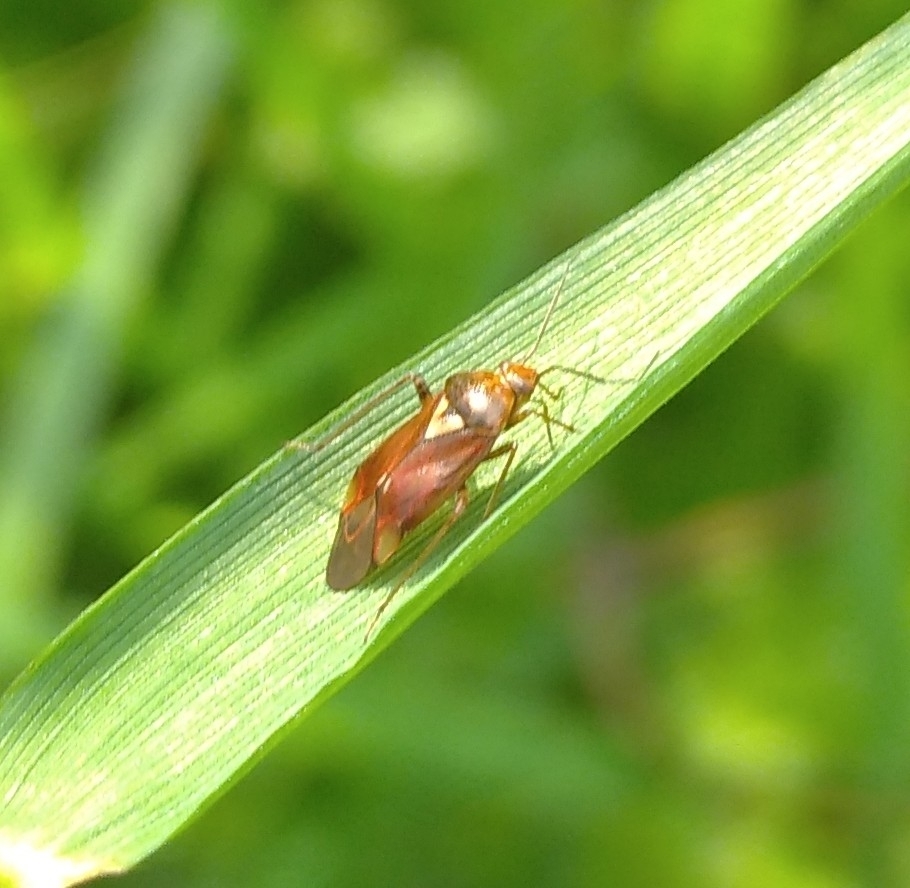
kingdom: Animalia
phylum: Arthropoda
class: Insecta
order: Hemiptera
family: Miridae
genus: Lygus
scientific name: Lygus pratensis
